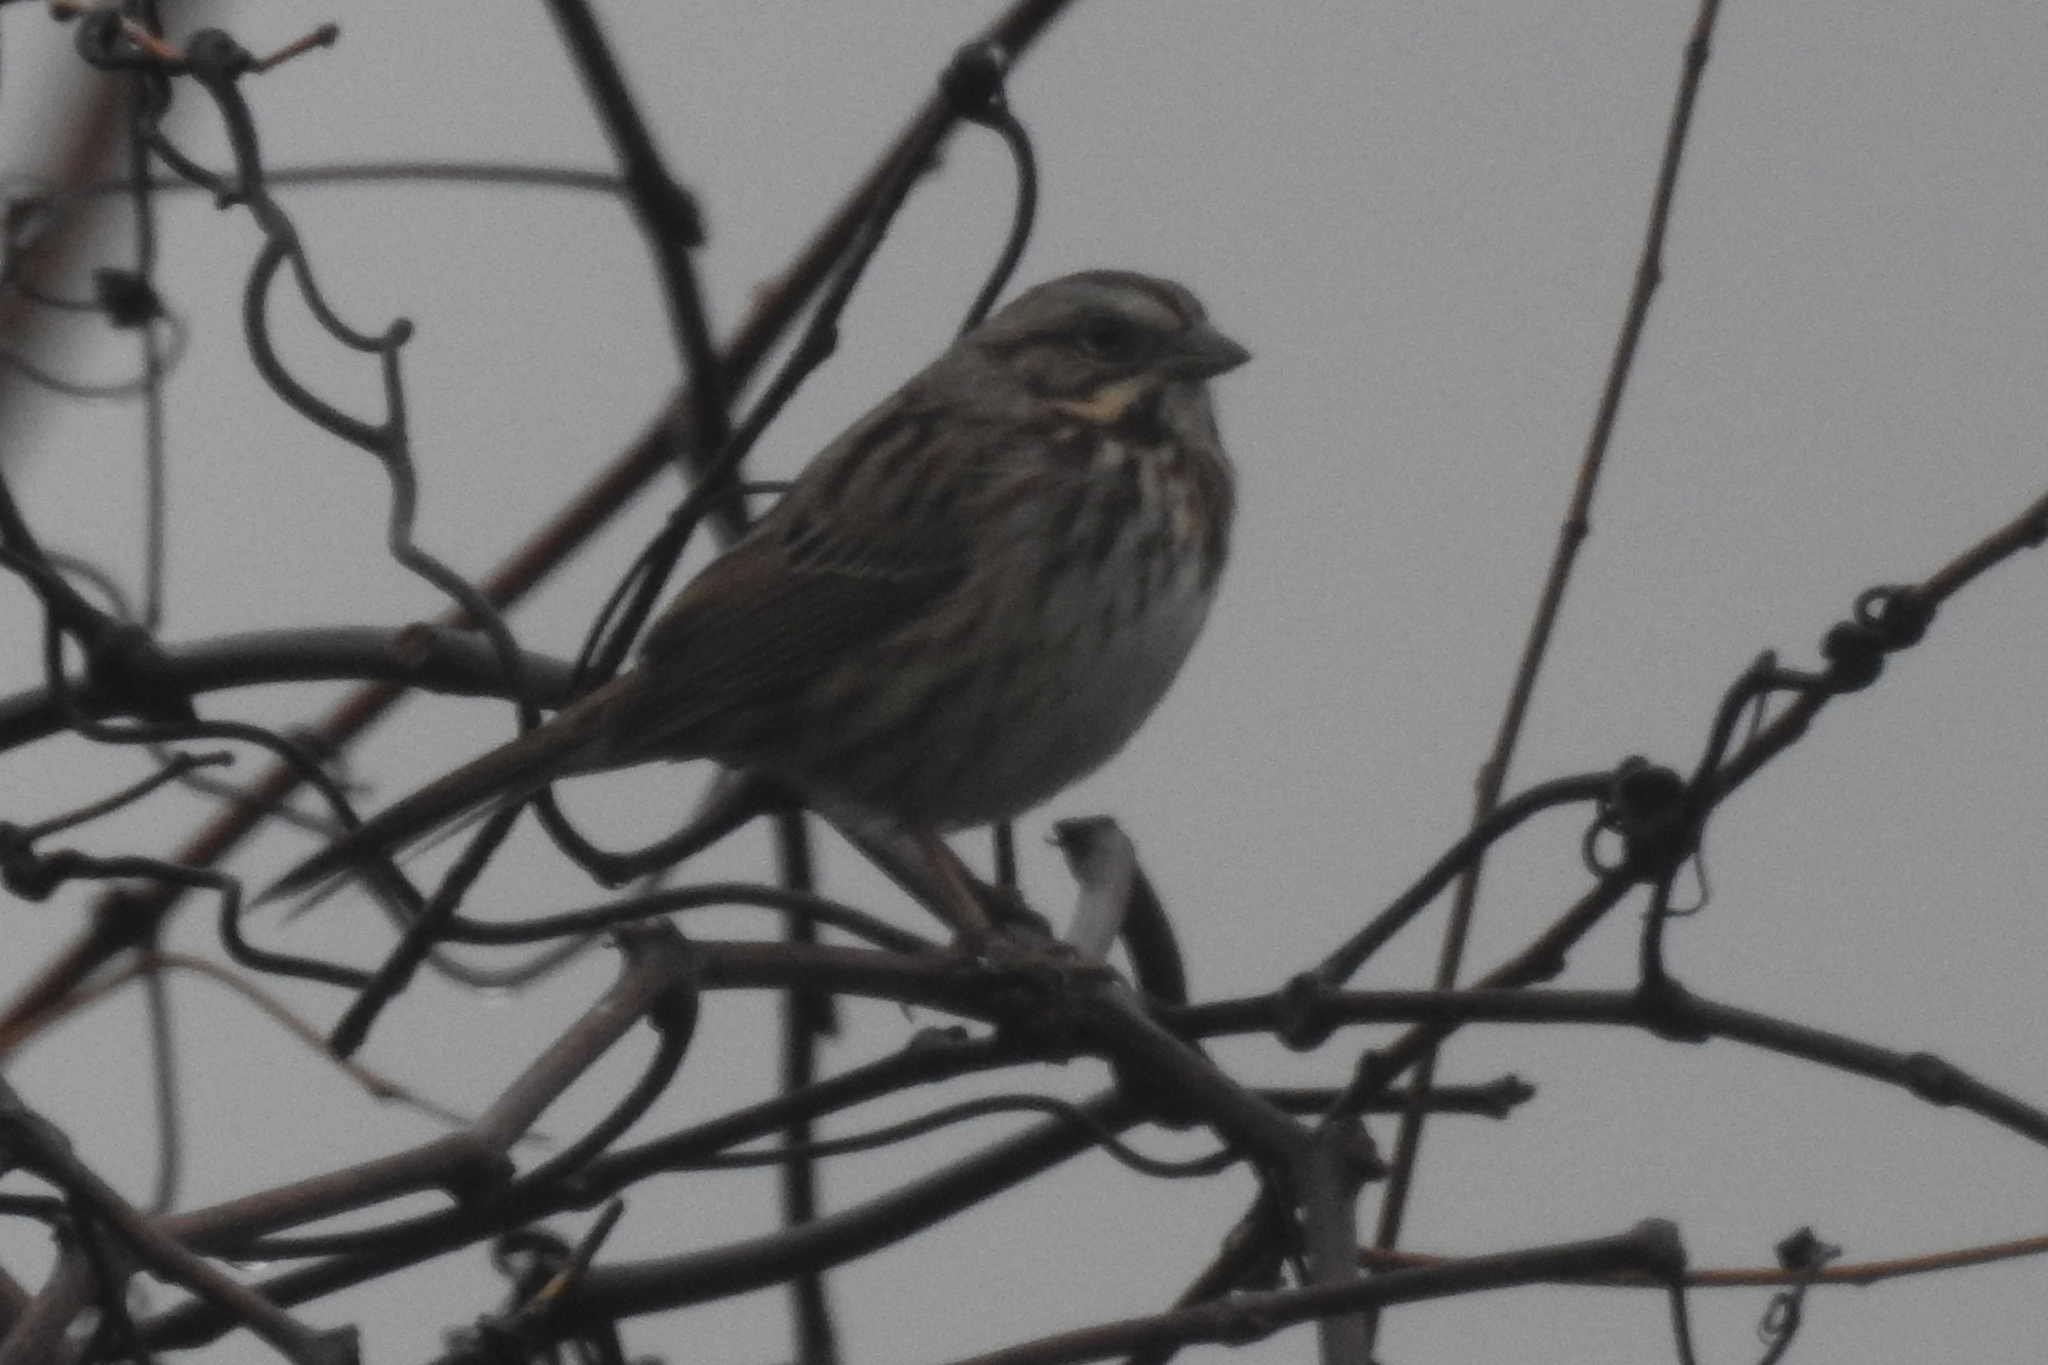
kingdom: Animalia
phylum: Chordata
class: Aves
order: Passeriformes
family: Passerellidae
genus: Melospiza
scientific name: Melospiza melodia
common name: Song sparrow
